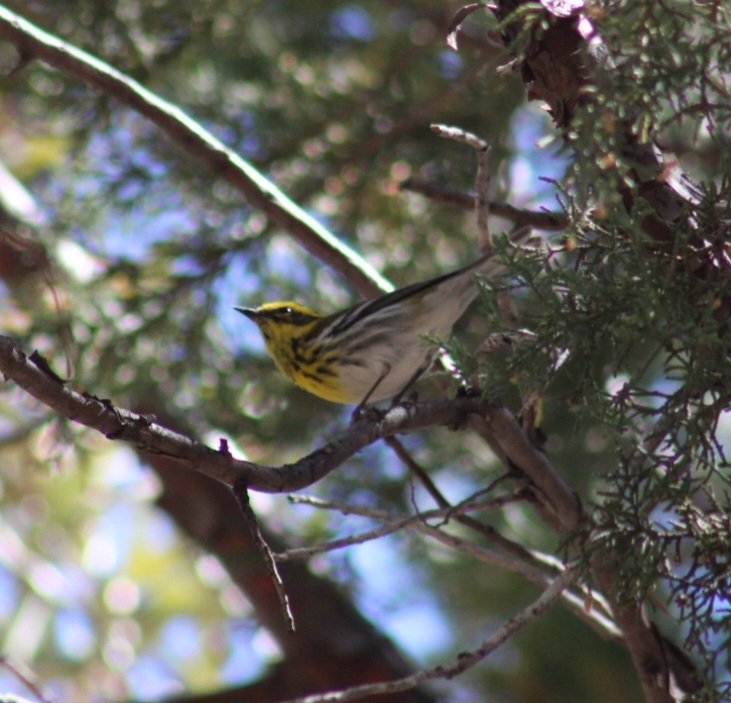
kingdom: Animalia
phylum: Chordata
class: Aves
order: Passeriformes
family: Parulidae
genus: Setophaga
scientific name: Setophaga townsendi
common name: Townsend's warbler
